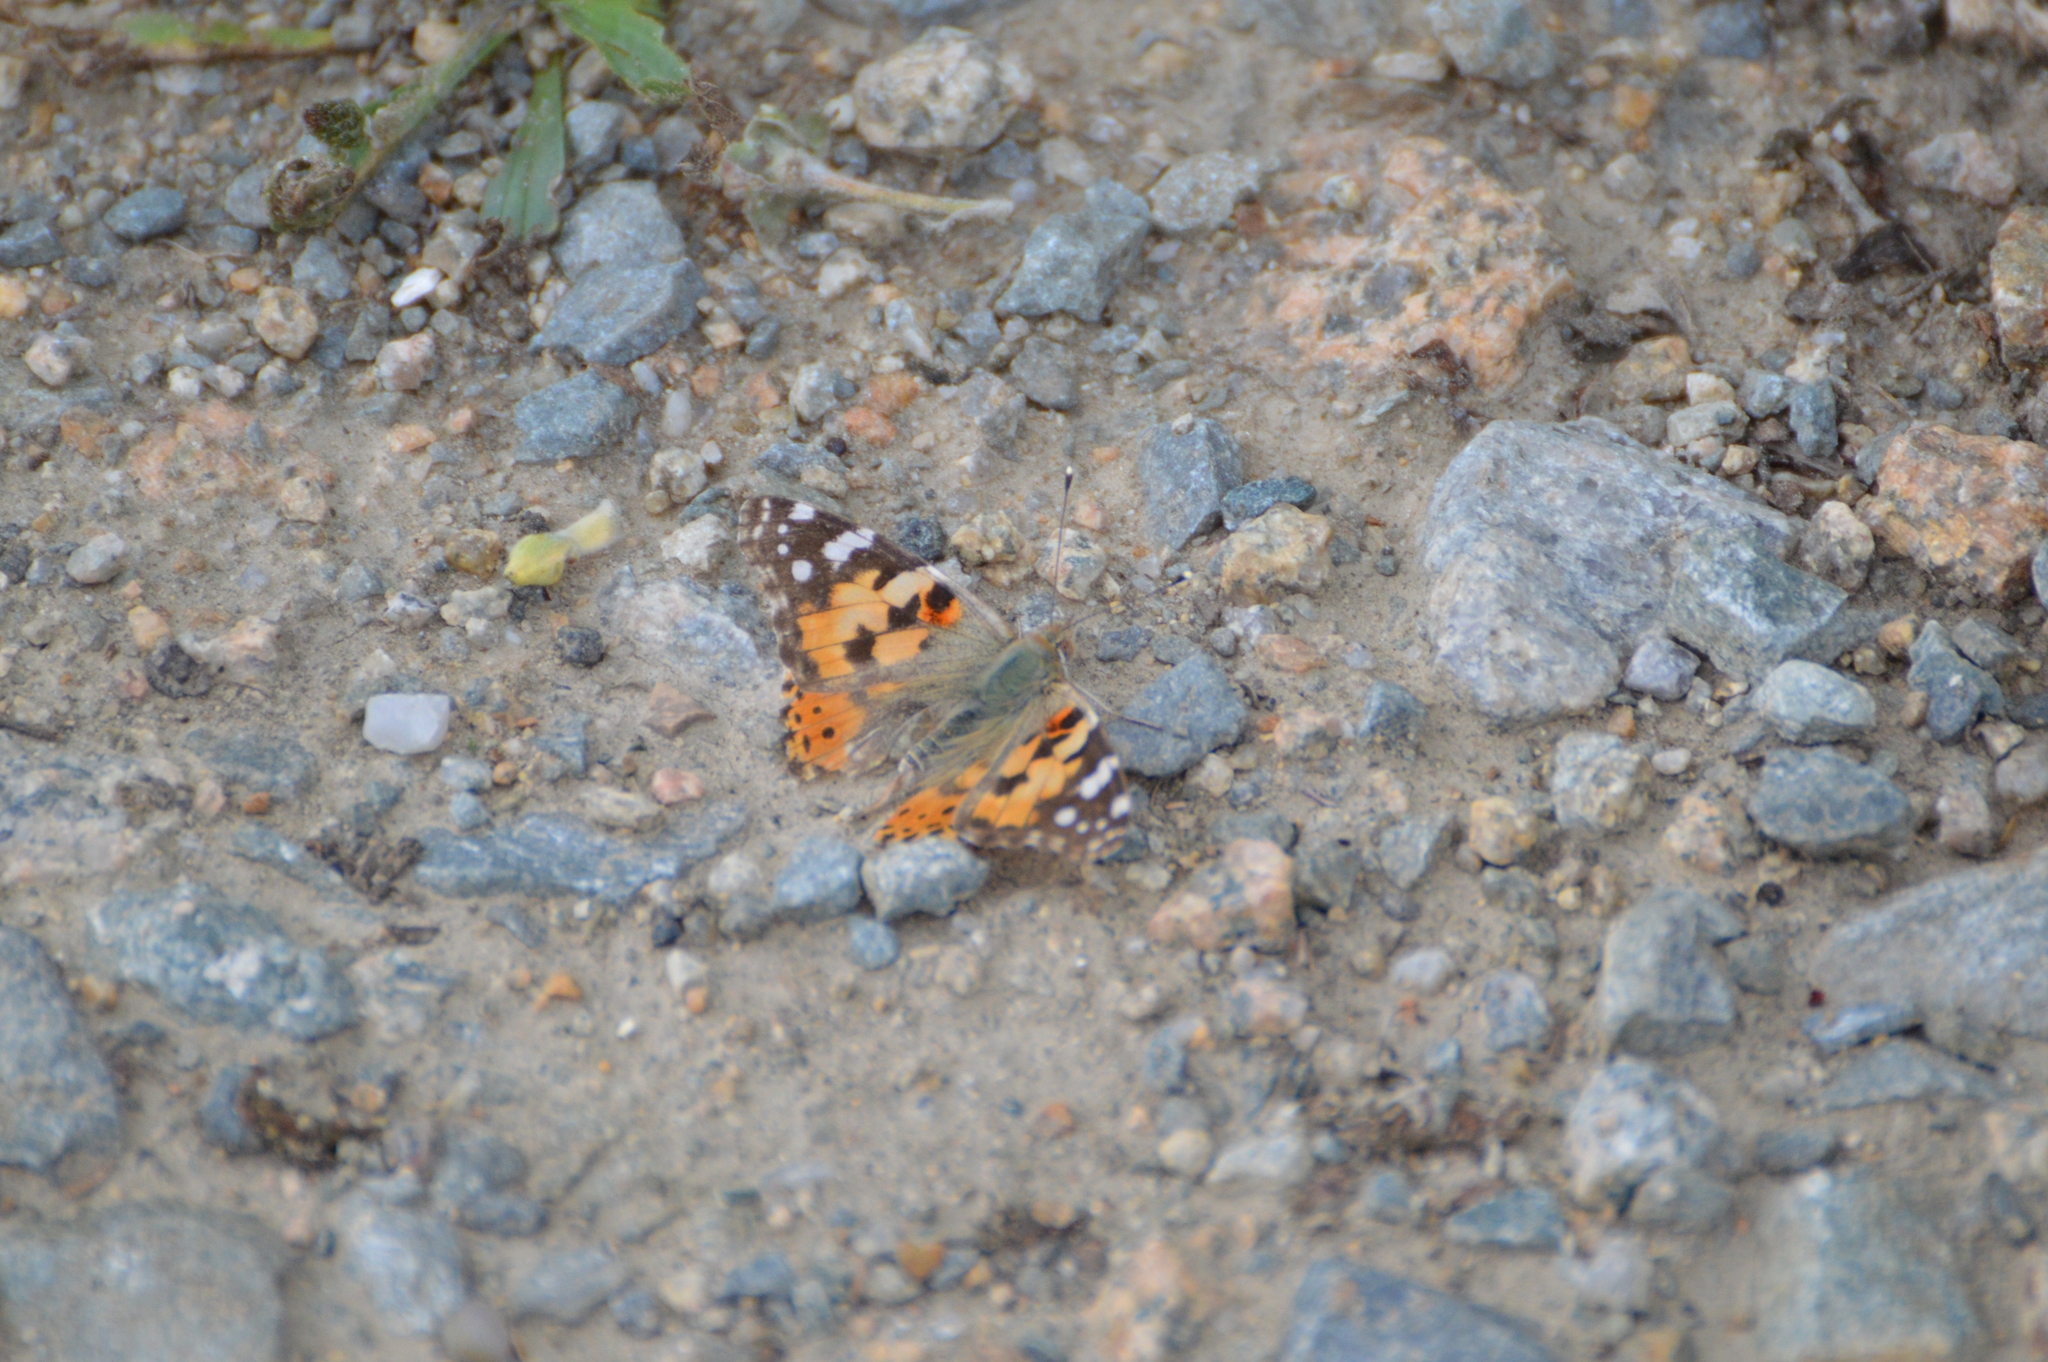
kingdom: Animalia
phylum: Arthropoda
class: Insecta
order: Lepidoptera
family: Nymphalidae
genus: Vanessa
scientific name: Vanessa cardui
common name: Painted lady
